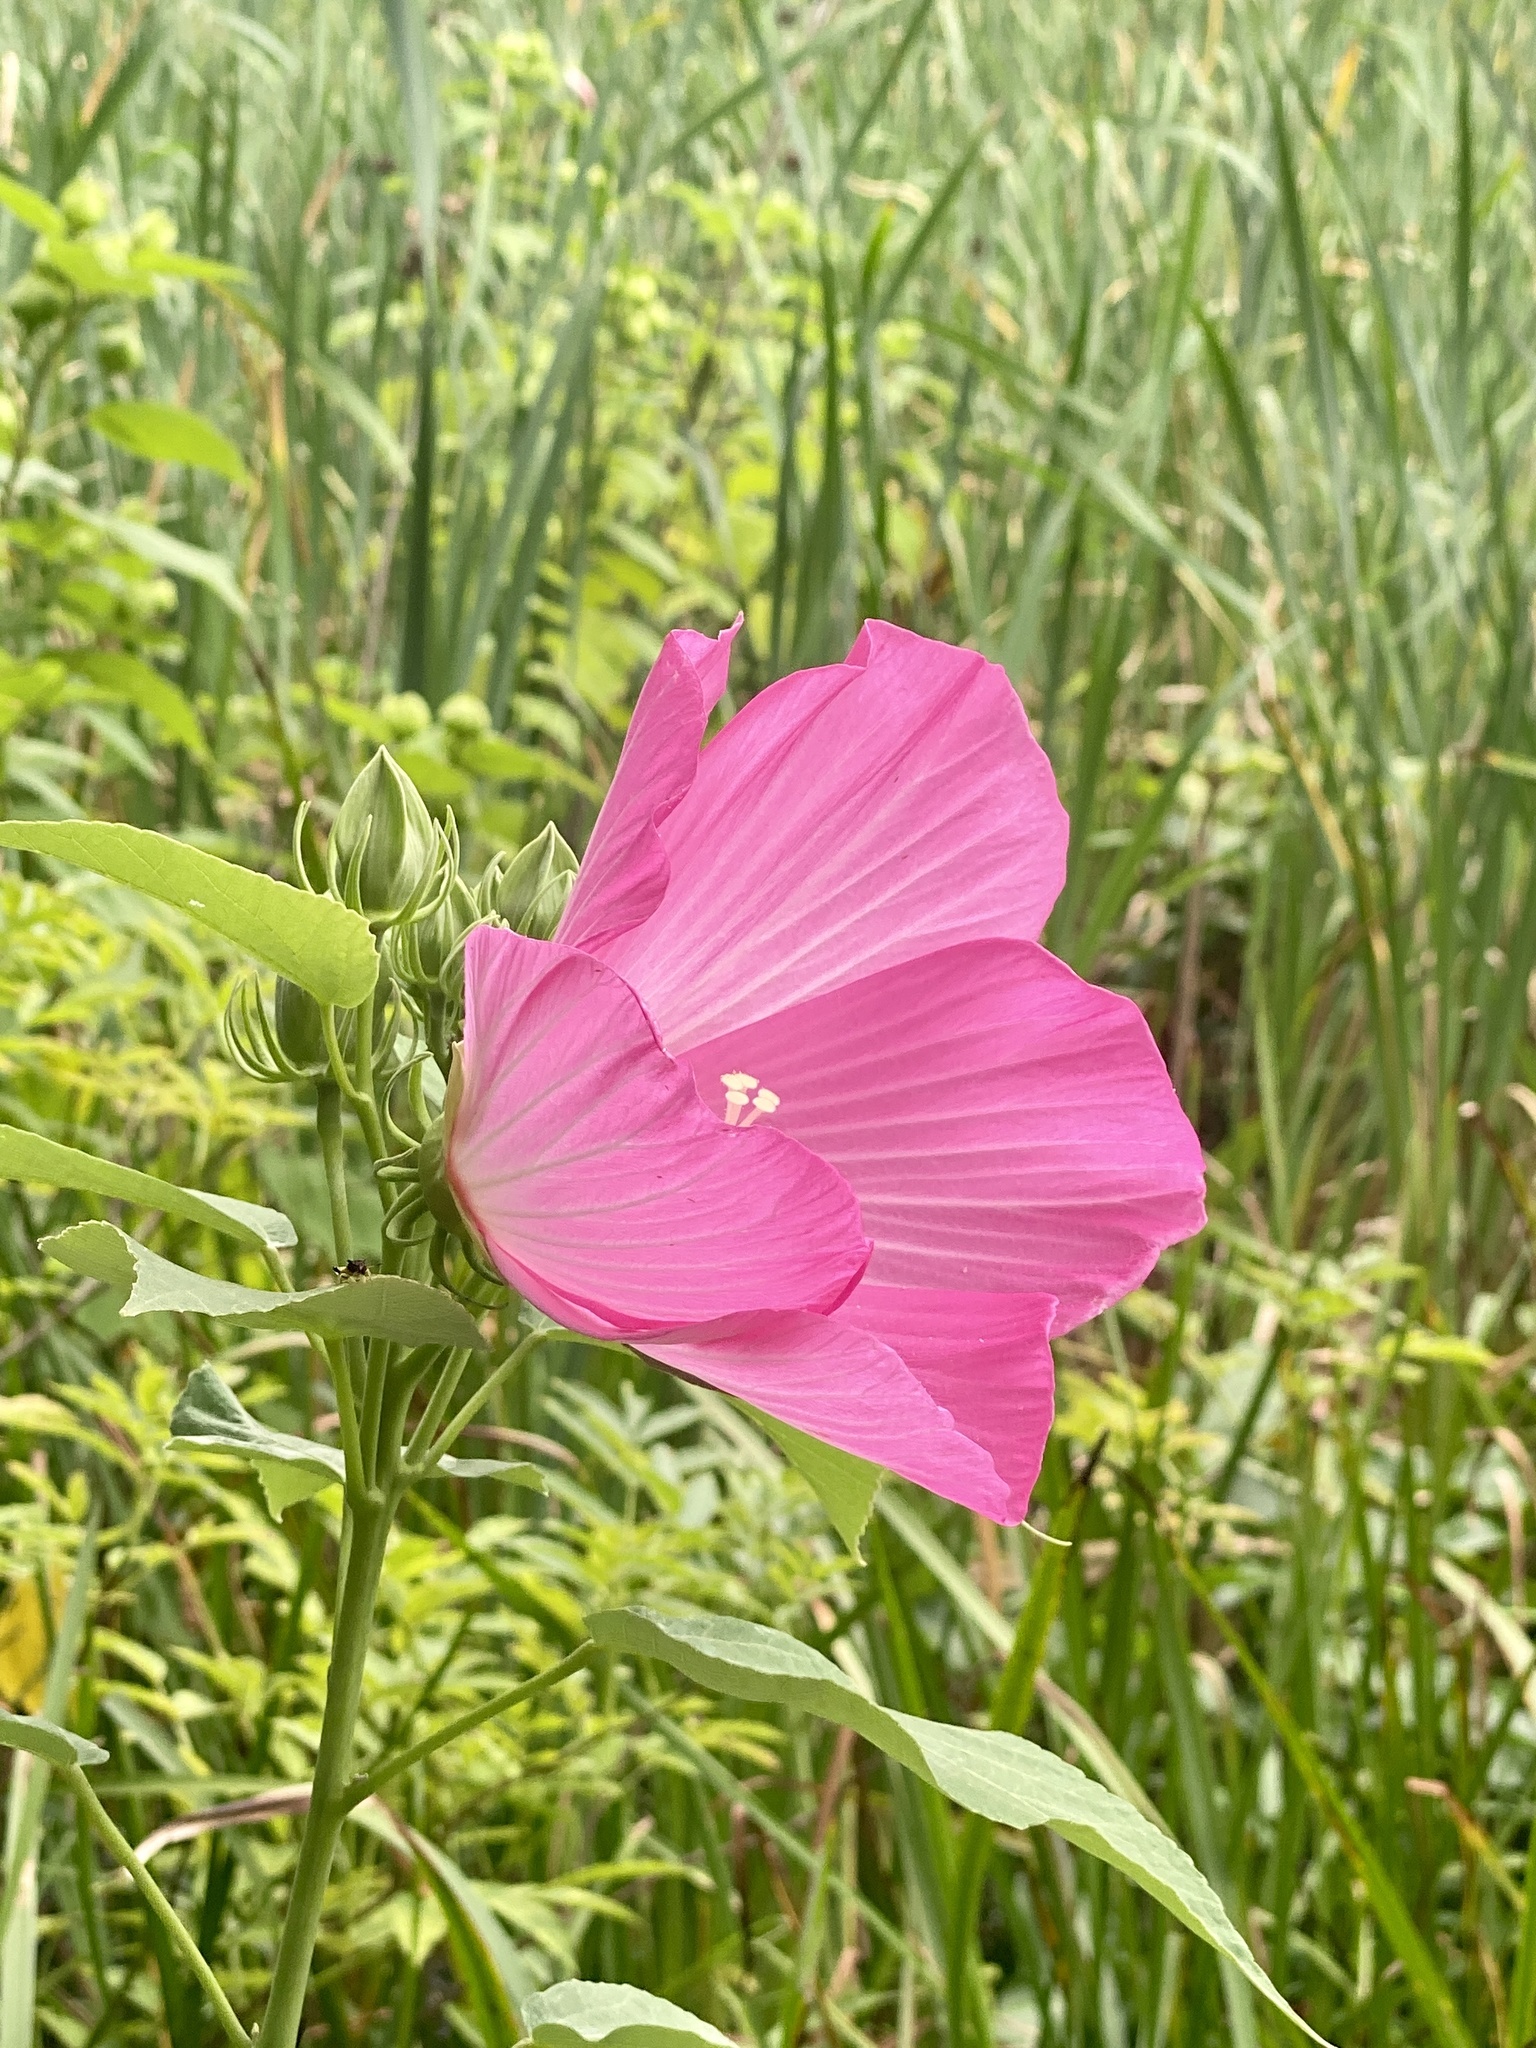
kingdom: Plantae
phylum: Tracheophyta
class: Magnoliopsida
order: Malvales
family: Malvaceae
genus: Hibiscus
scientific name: Hibiscus moscheutos
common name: Common rose-mallow
